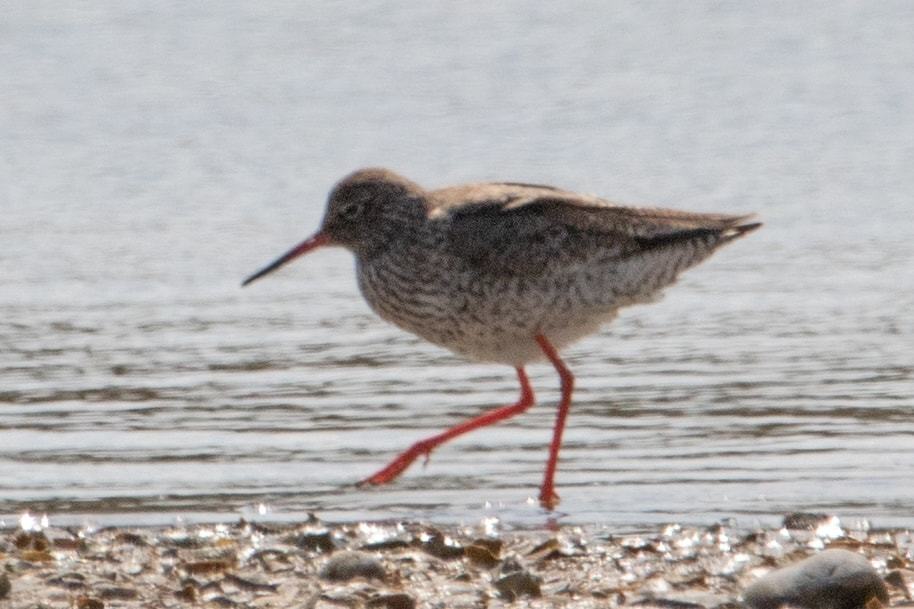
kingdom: Animalia
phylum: Chordata
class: Aves
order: Charadriiformes
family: Scolopacidae
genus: Tringa
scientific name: Tringa totanus
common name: Common redshank
